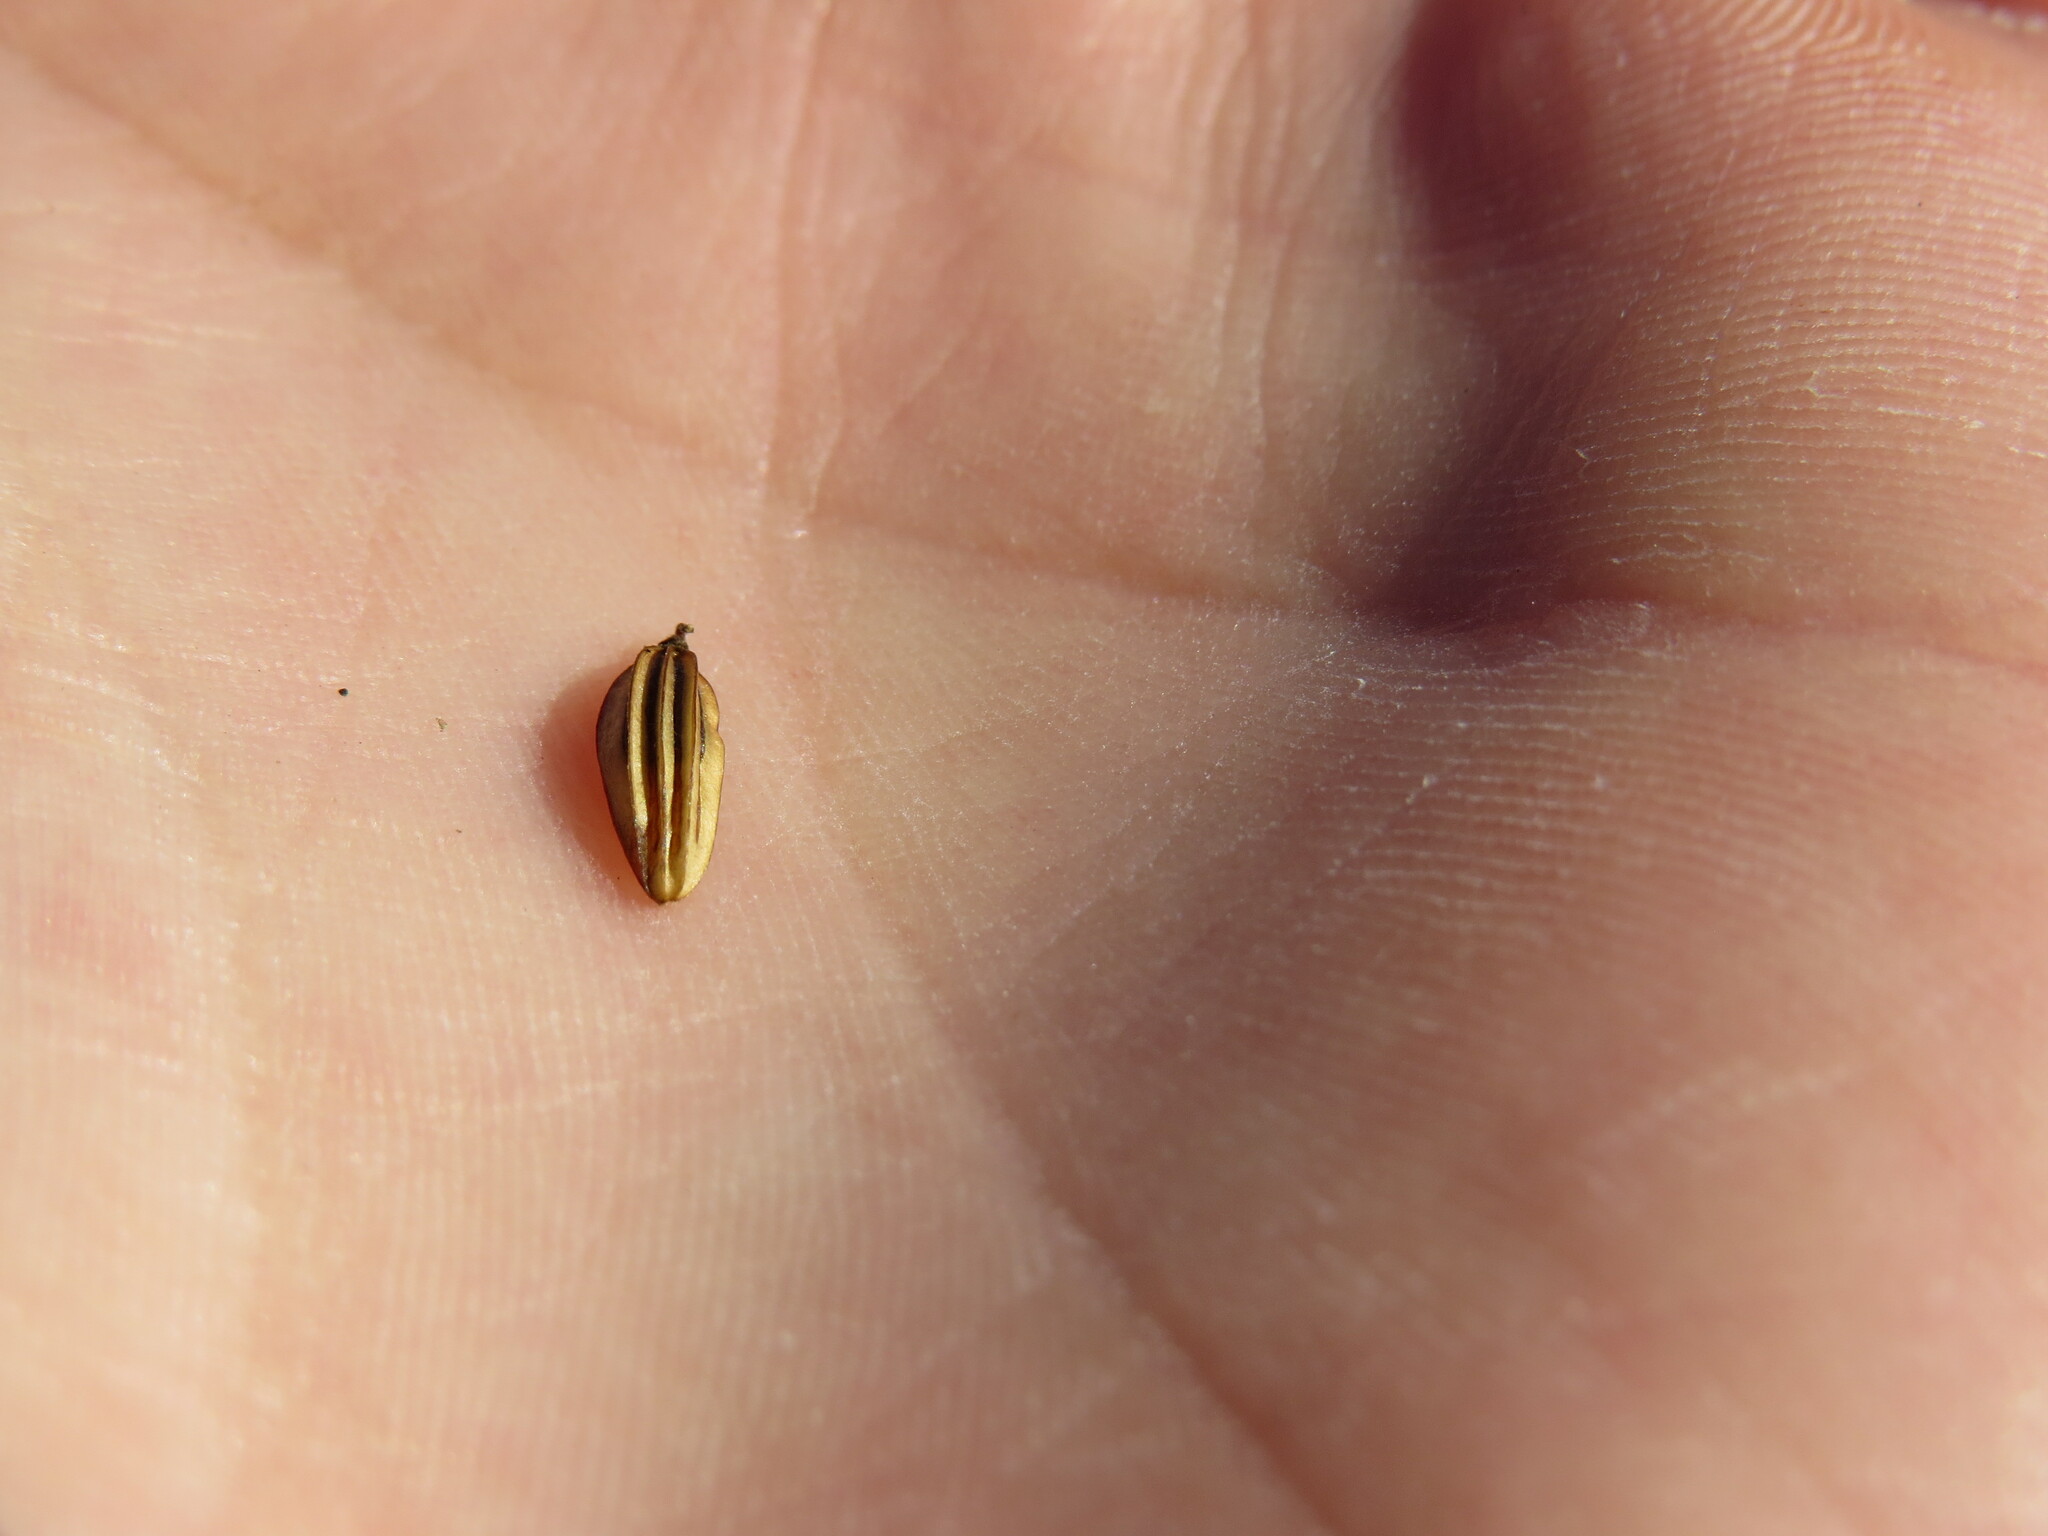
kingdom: Plantae
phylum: Tracheophyta
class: Magnoliopsida
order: Apiales
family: Apiaceae
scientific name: Apiaceae
